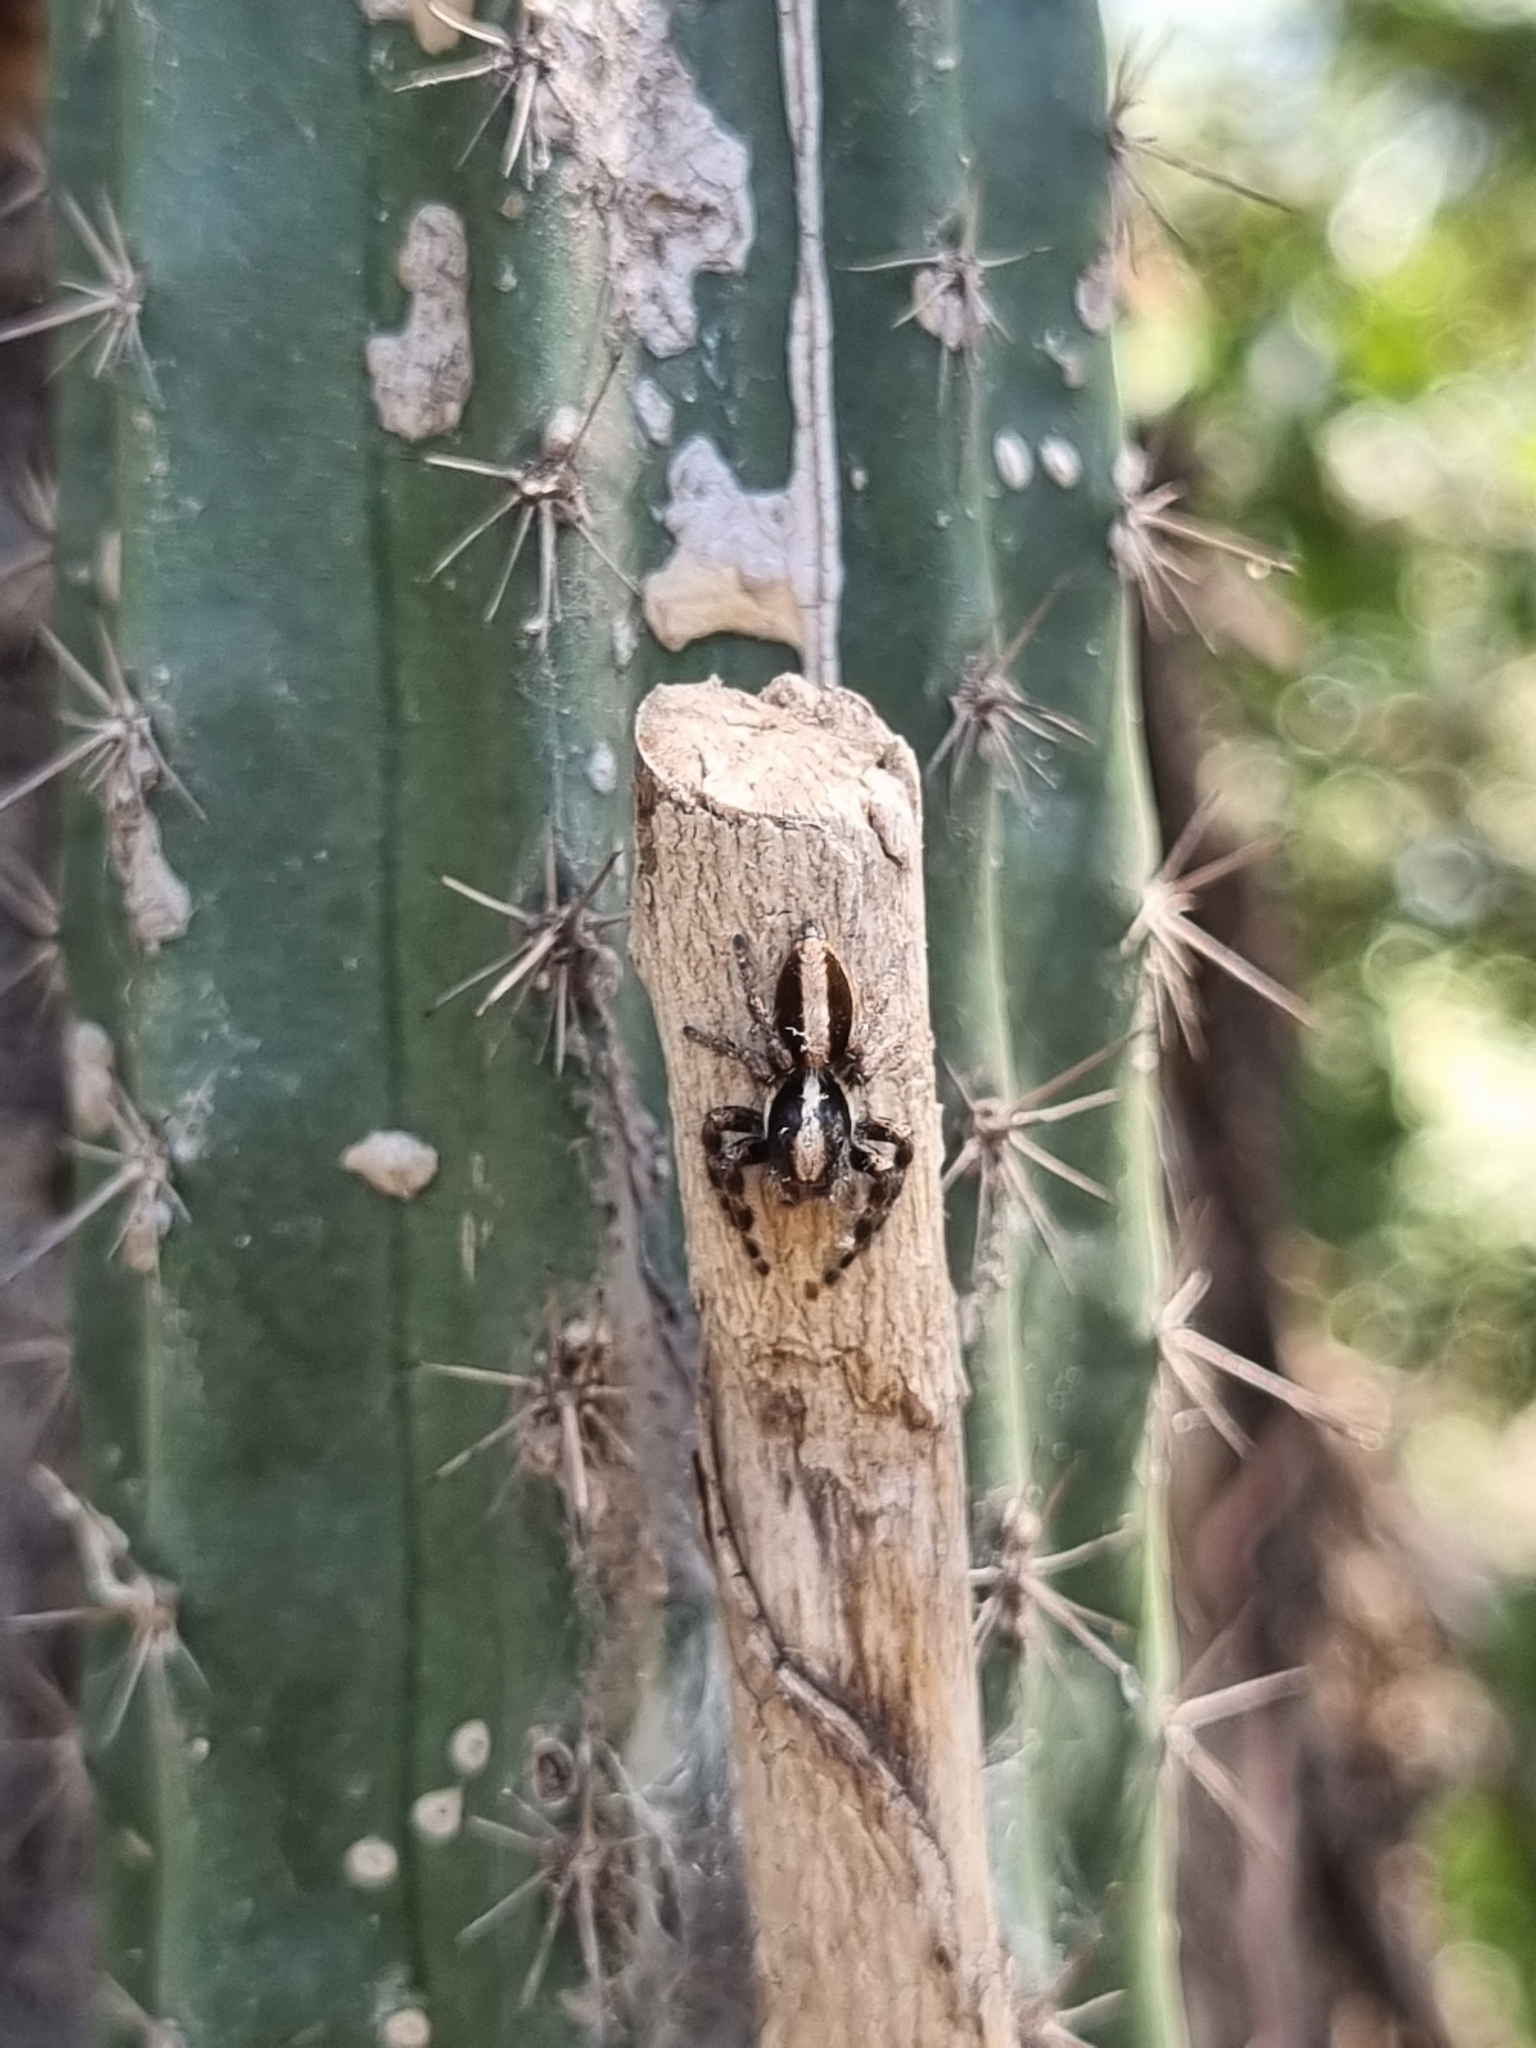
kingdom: Animalia
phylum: Arthropoda
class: Arachnida
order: Araneae
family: Salticidae
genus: Megafreya
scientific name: Megafreya sutrix
